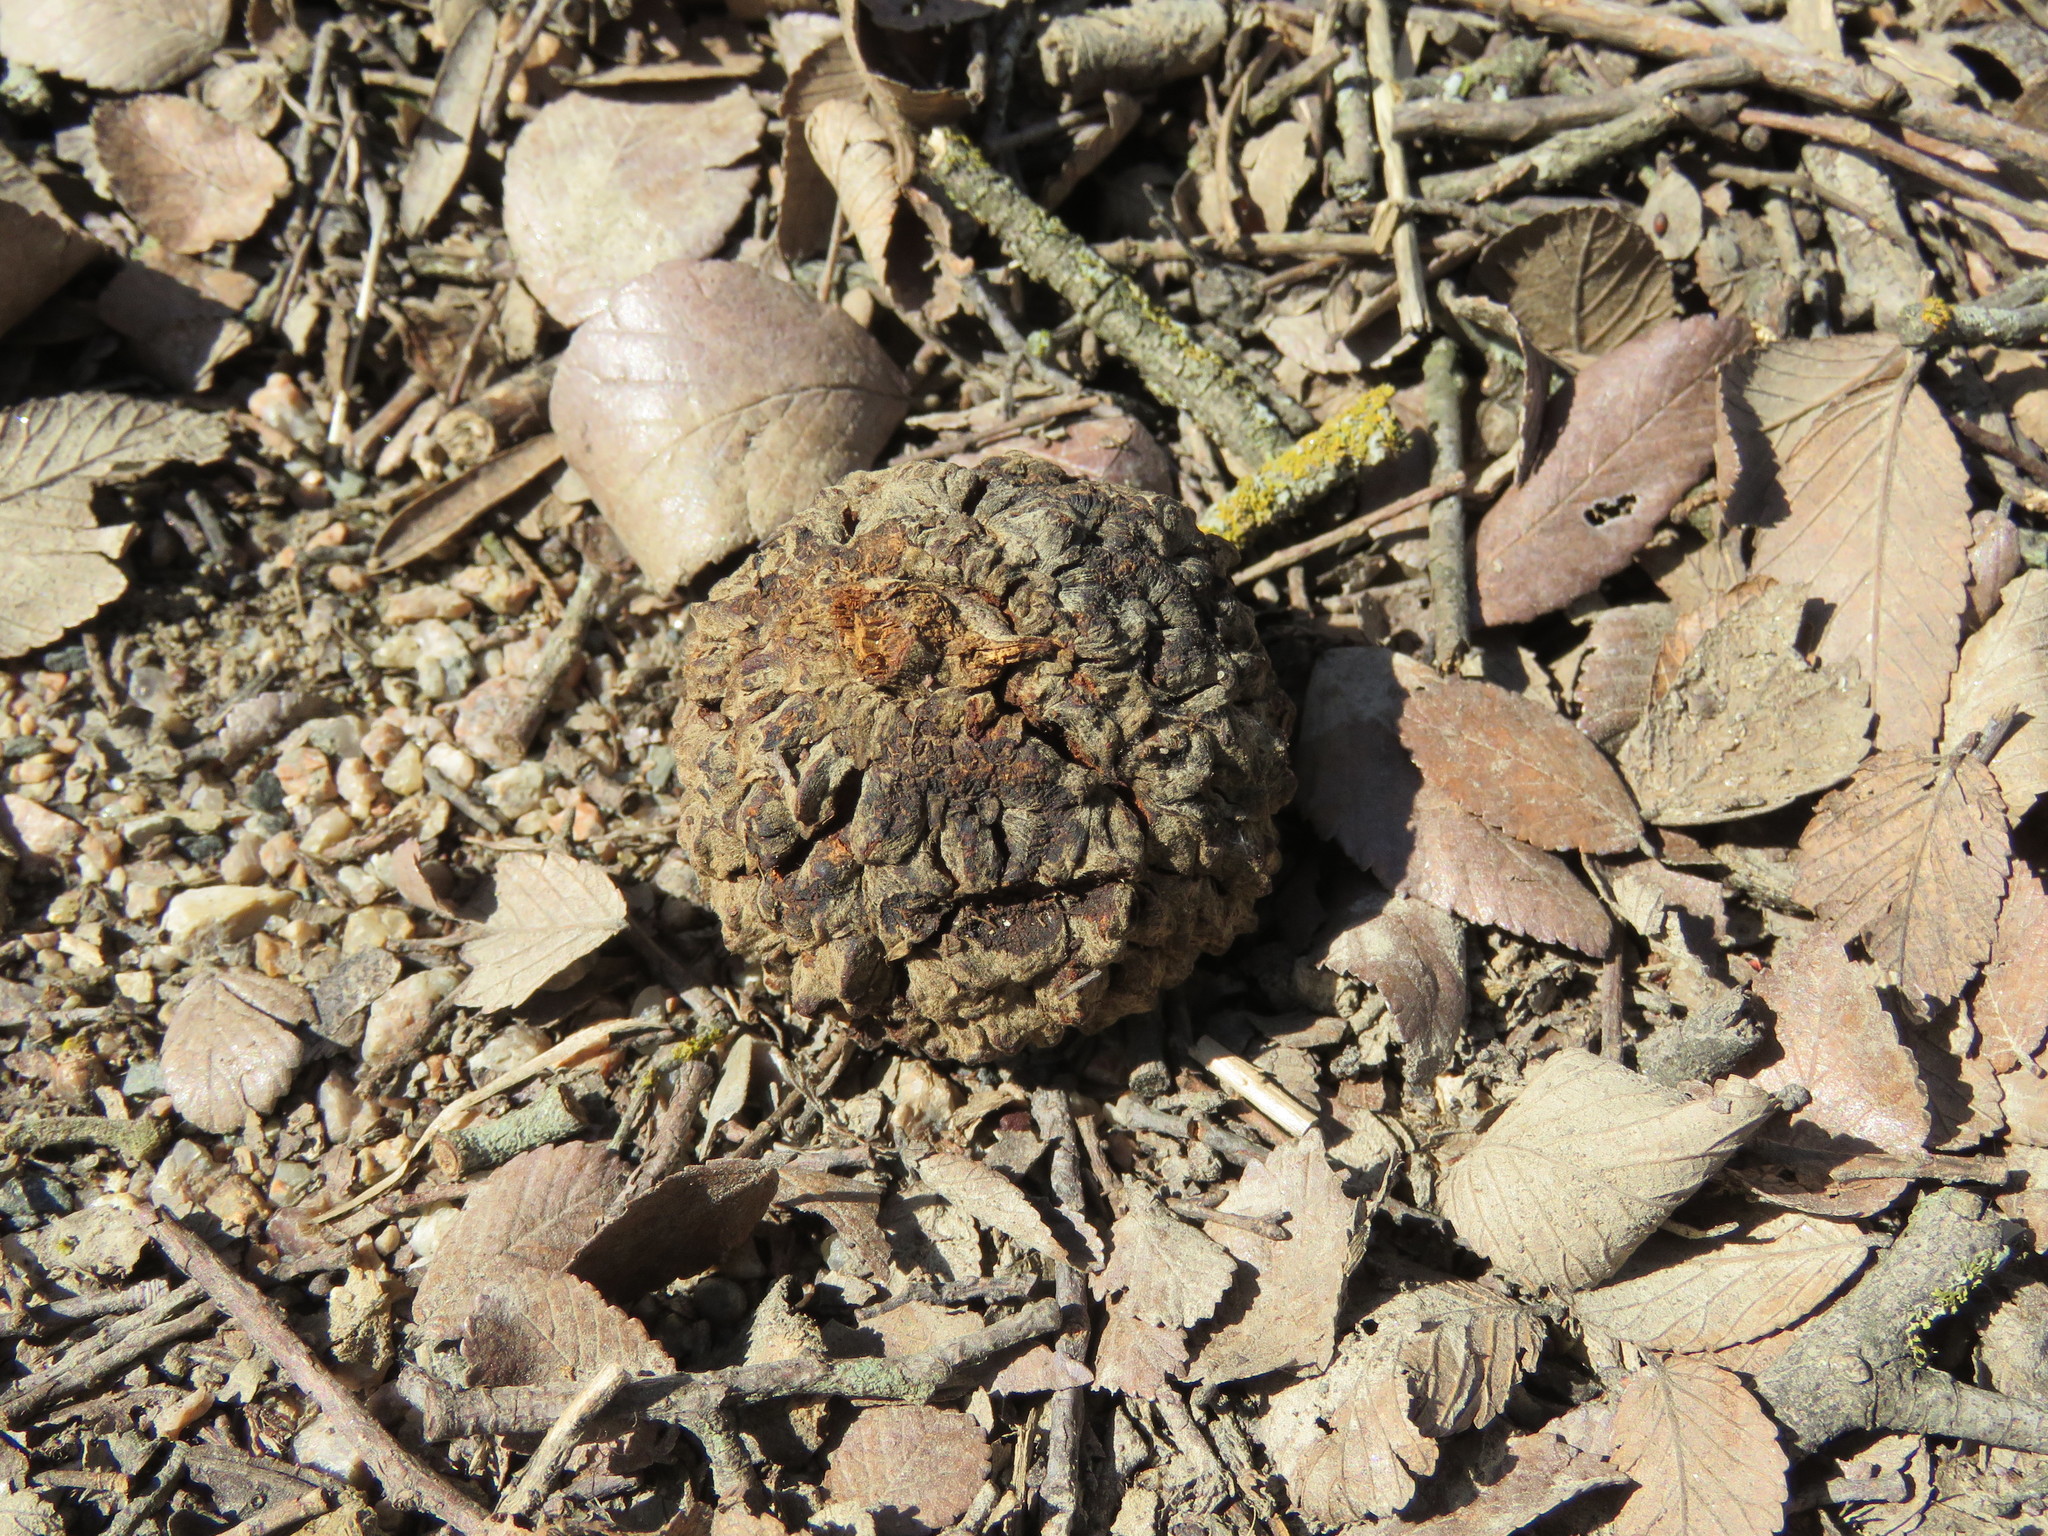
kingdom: Plantae
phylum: Tracheophyta
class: Magnoliopsida
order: Fagales
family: Fagaceae
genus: Quercus
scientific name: Quercus macrocarpa
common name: Bur oak
